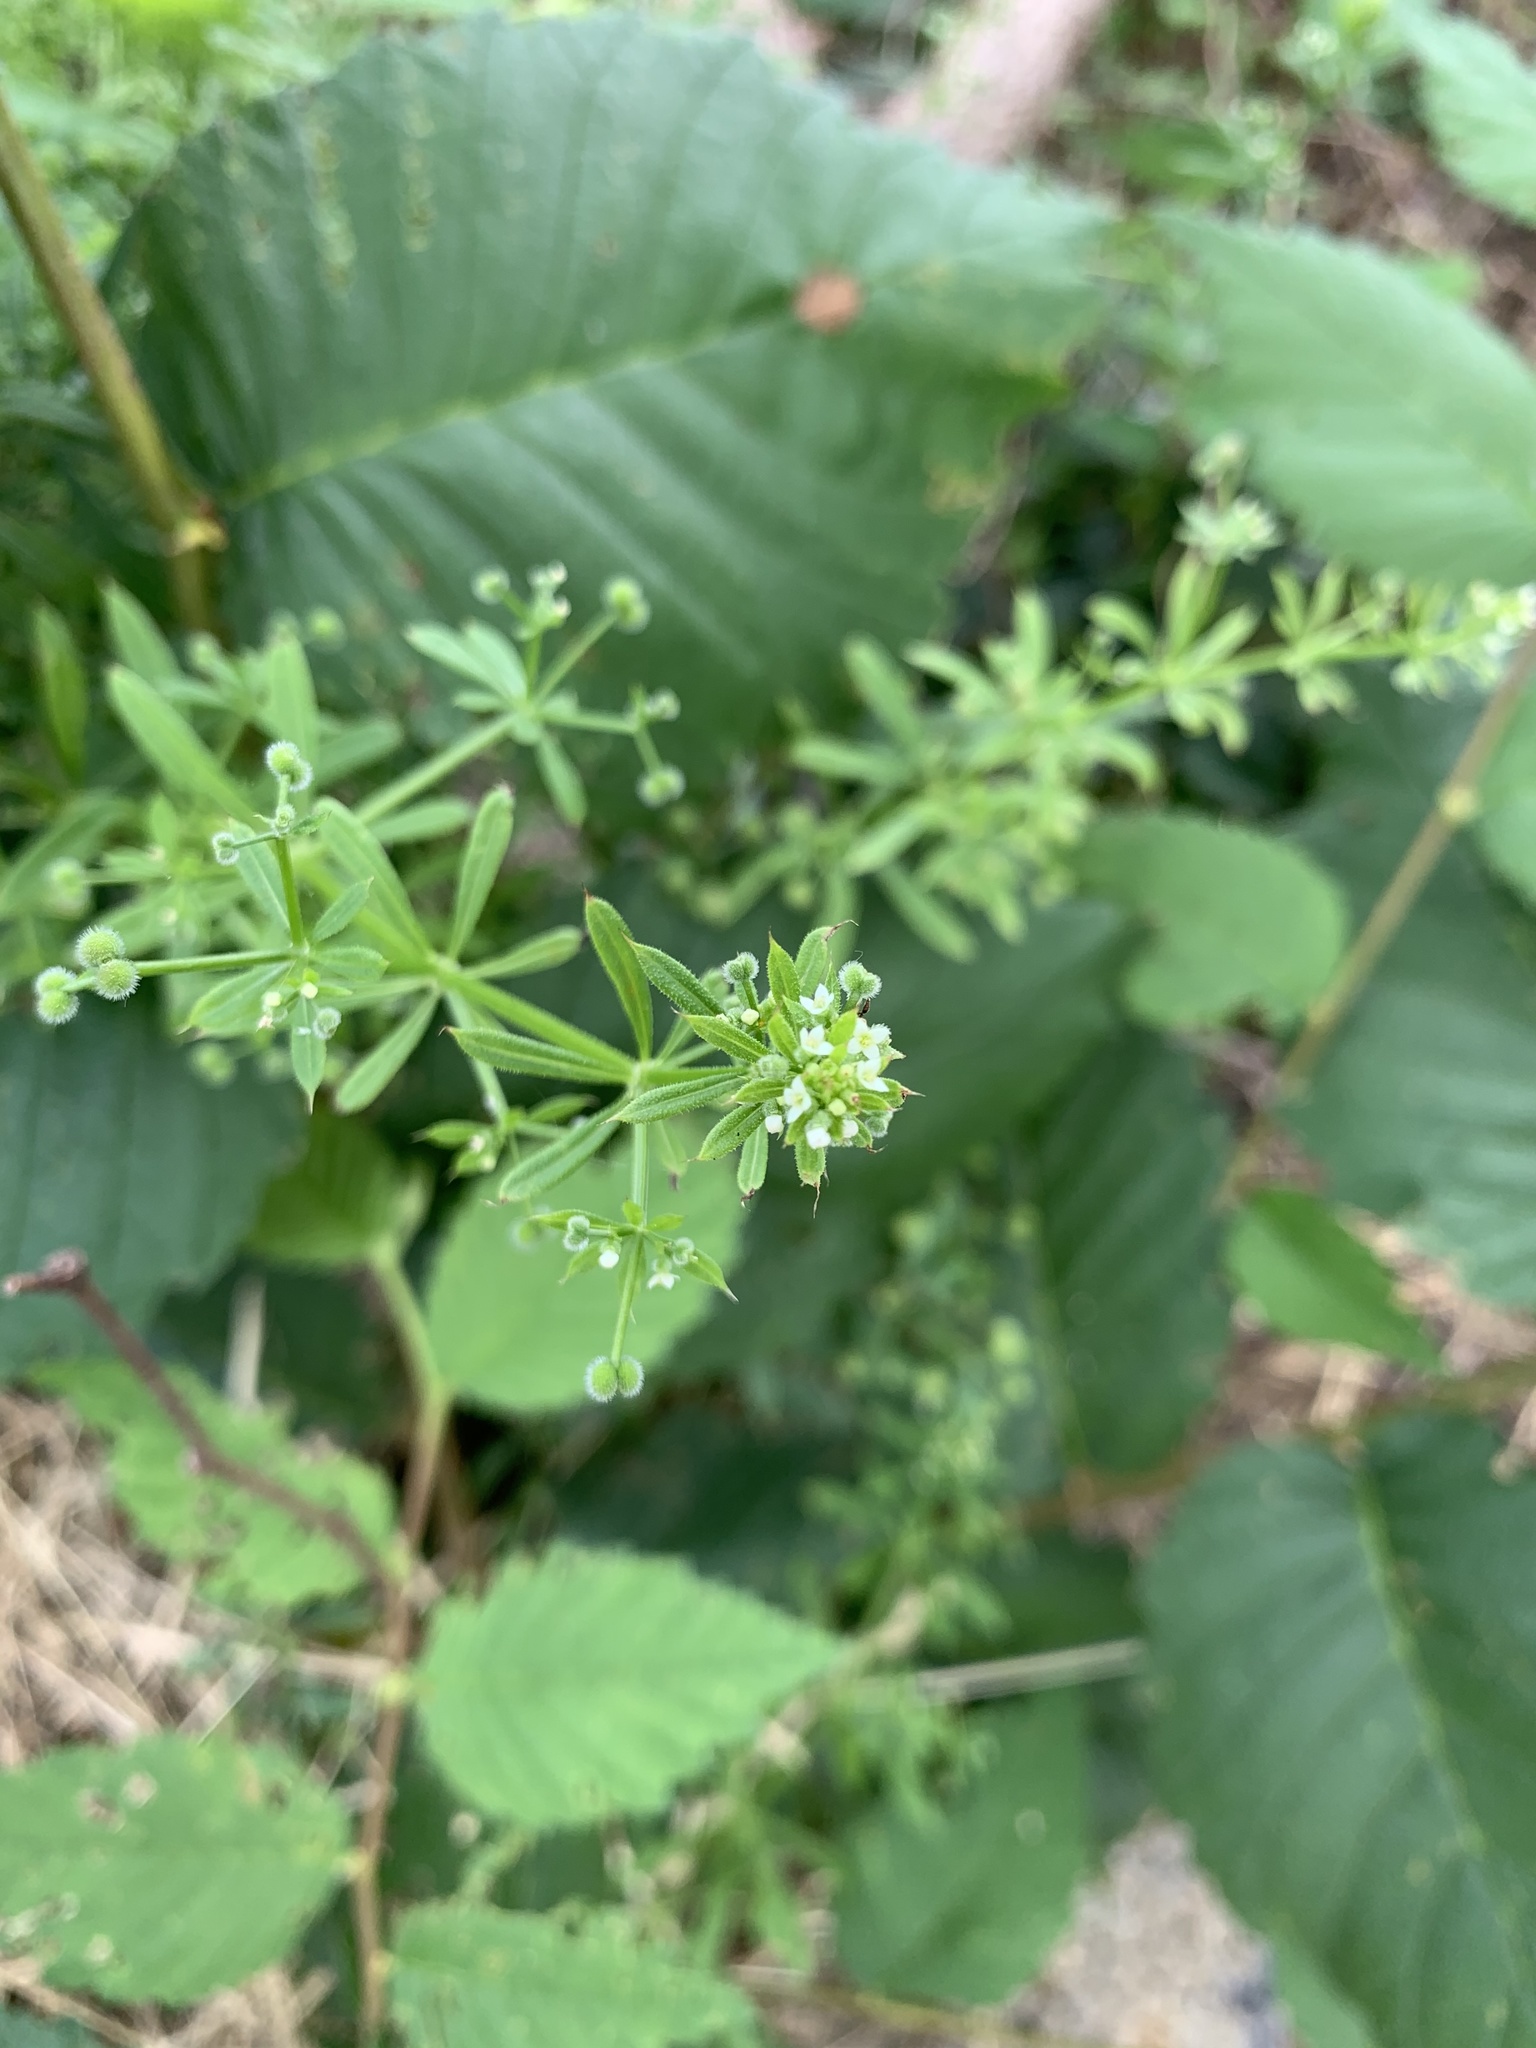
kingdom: Plantae
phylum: Tracheophyta
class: Magnoliopsida
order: Gentianales
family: Rubiaceae
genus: Galium
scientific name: Galium aparine
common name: Cleavers
